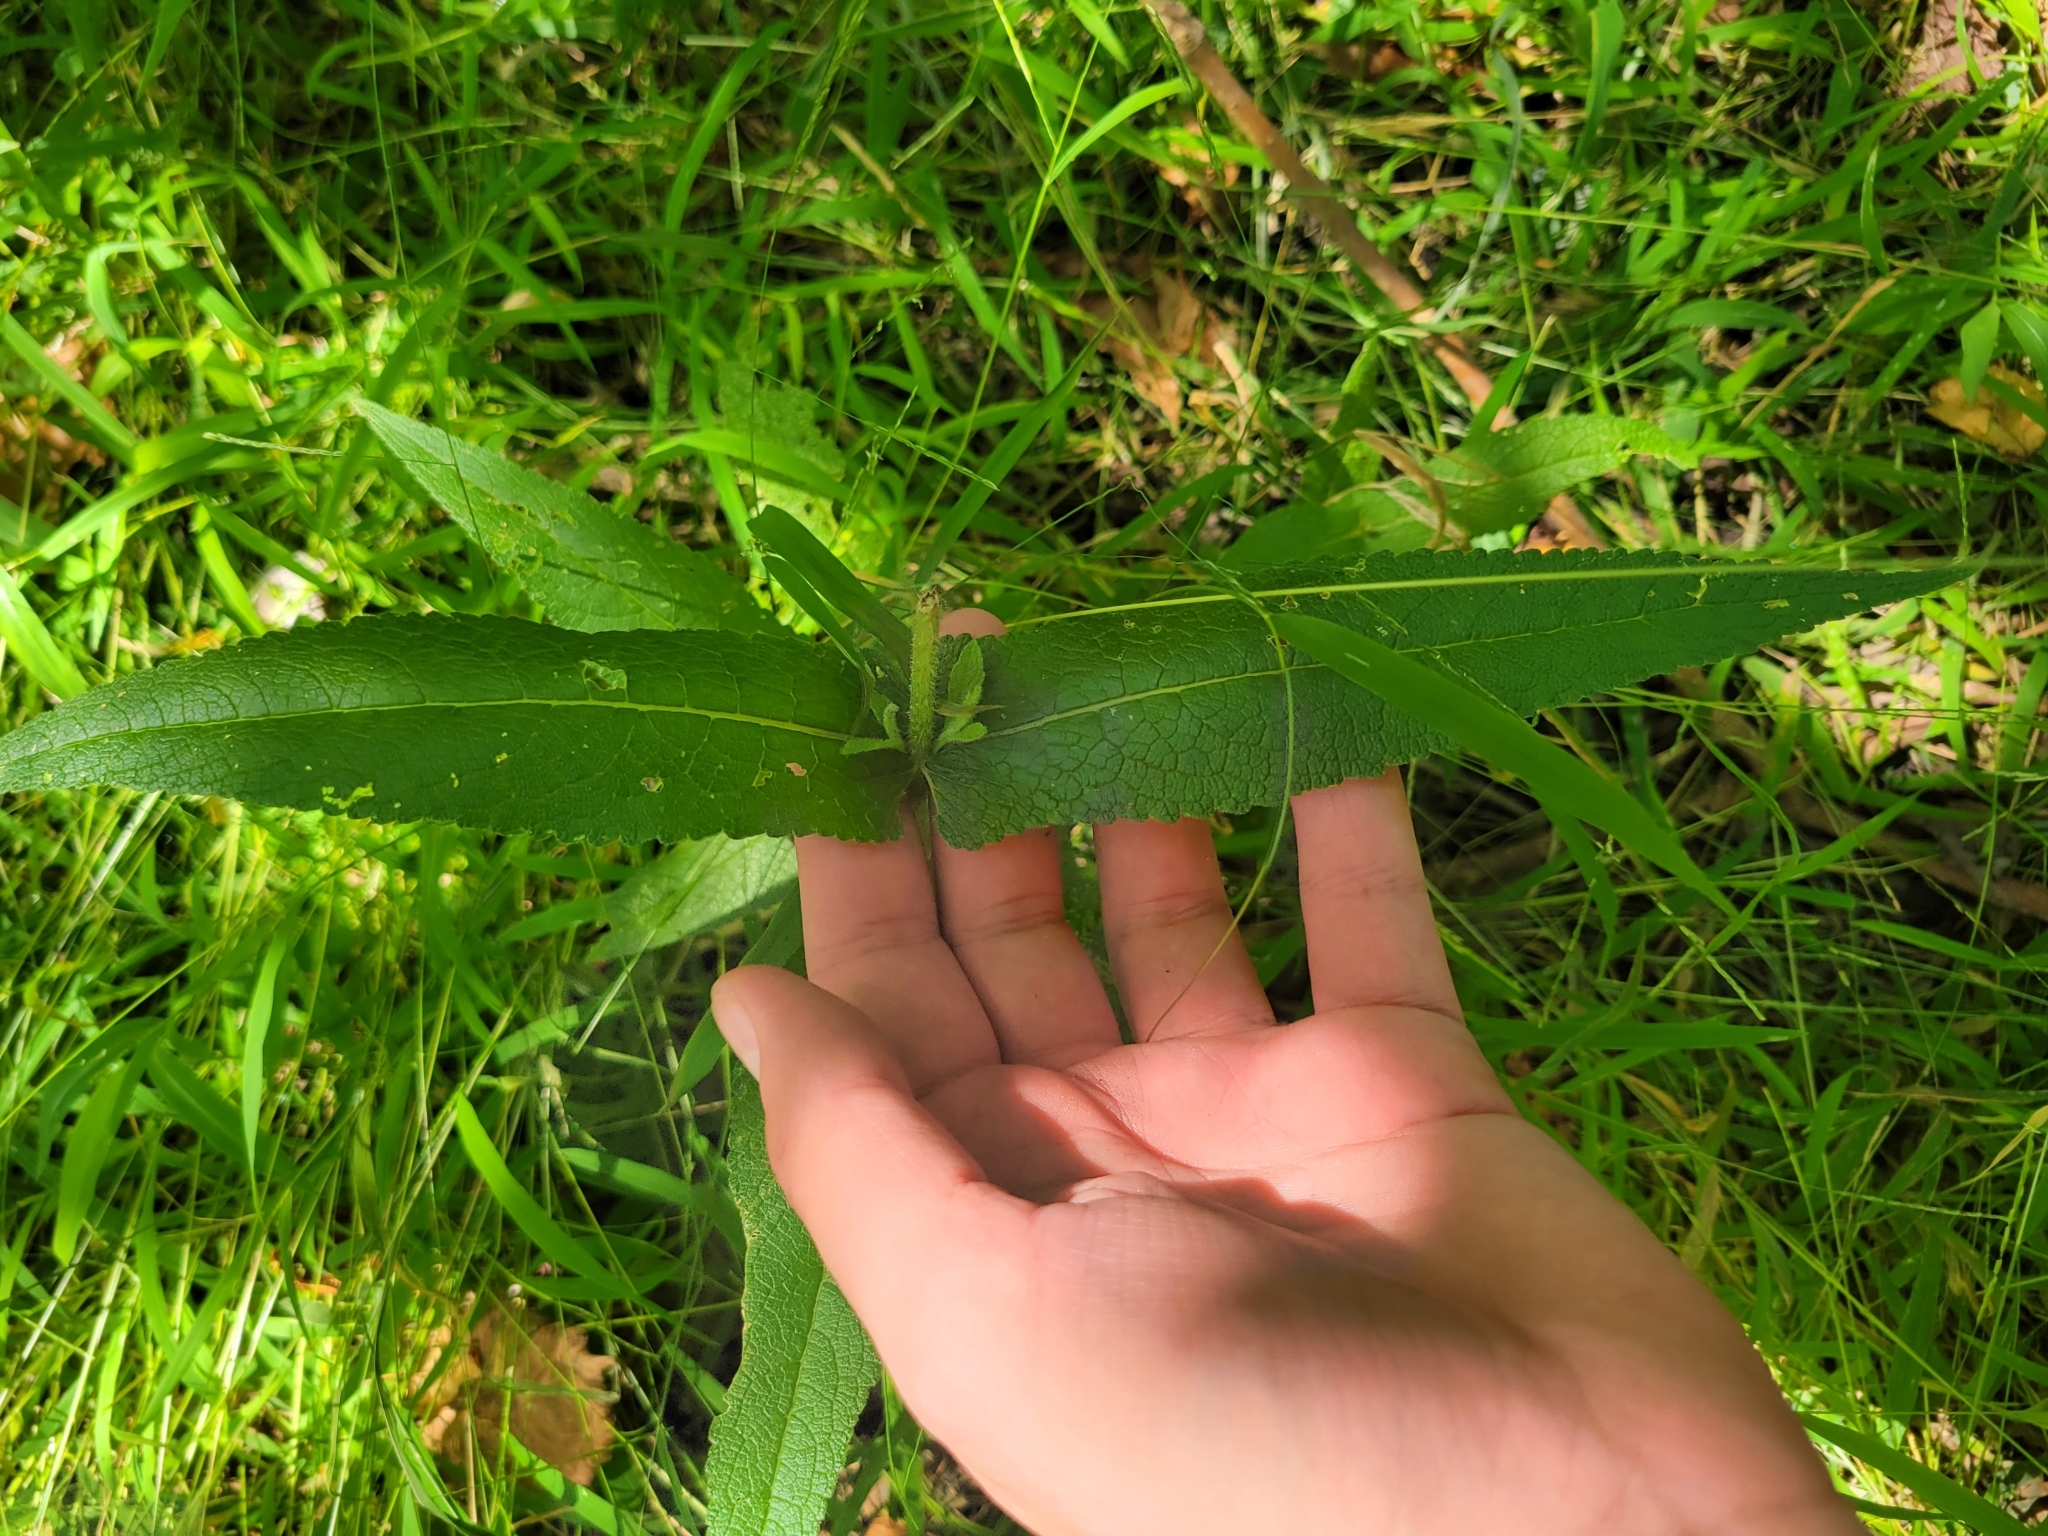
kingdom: Plantae
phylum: Tracheophyta
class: Magnoliopsida
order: Asterales
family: Asteraceae
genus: Eupatorium
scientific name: Eupatorium perfoliatum
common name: Boneset
